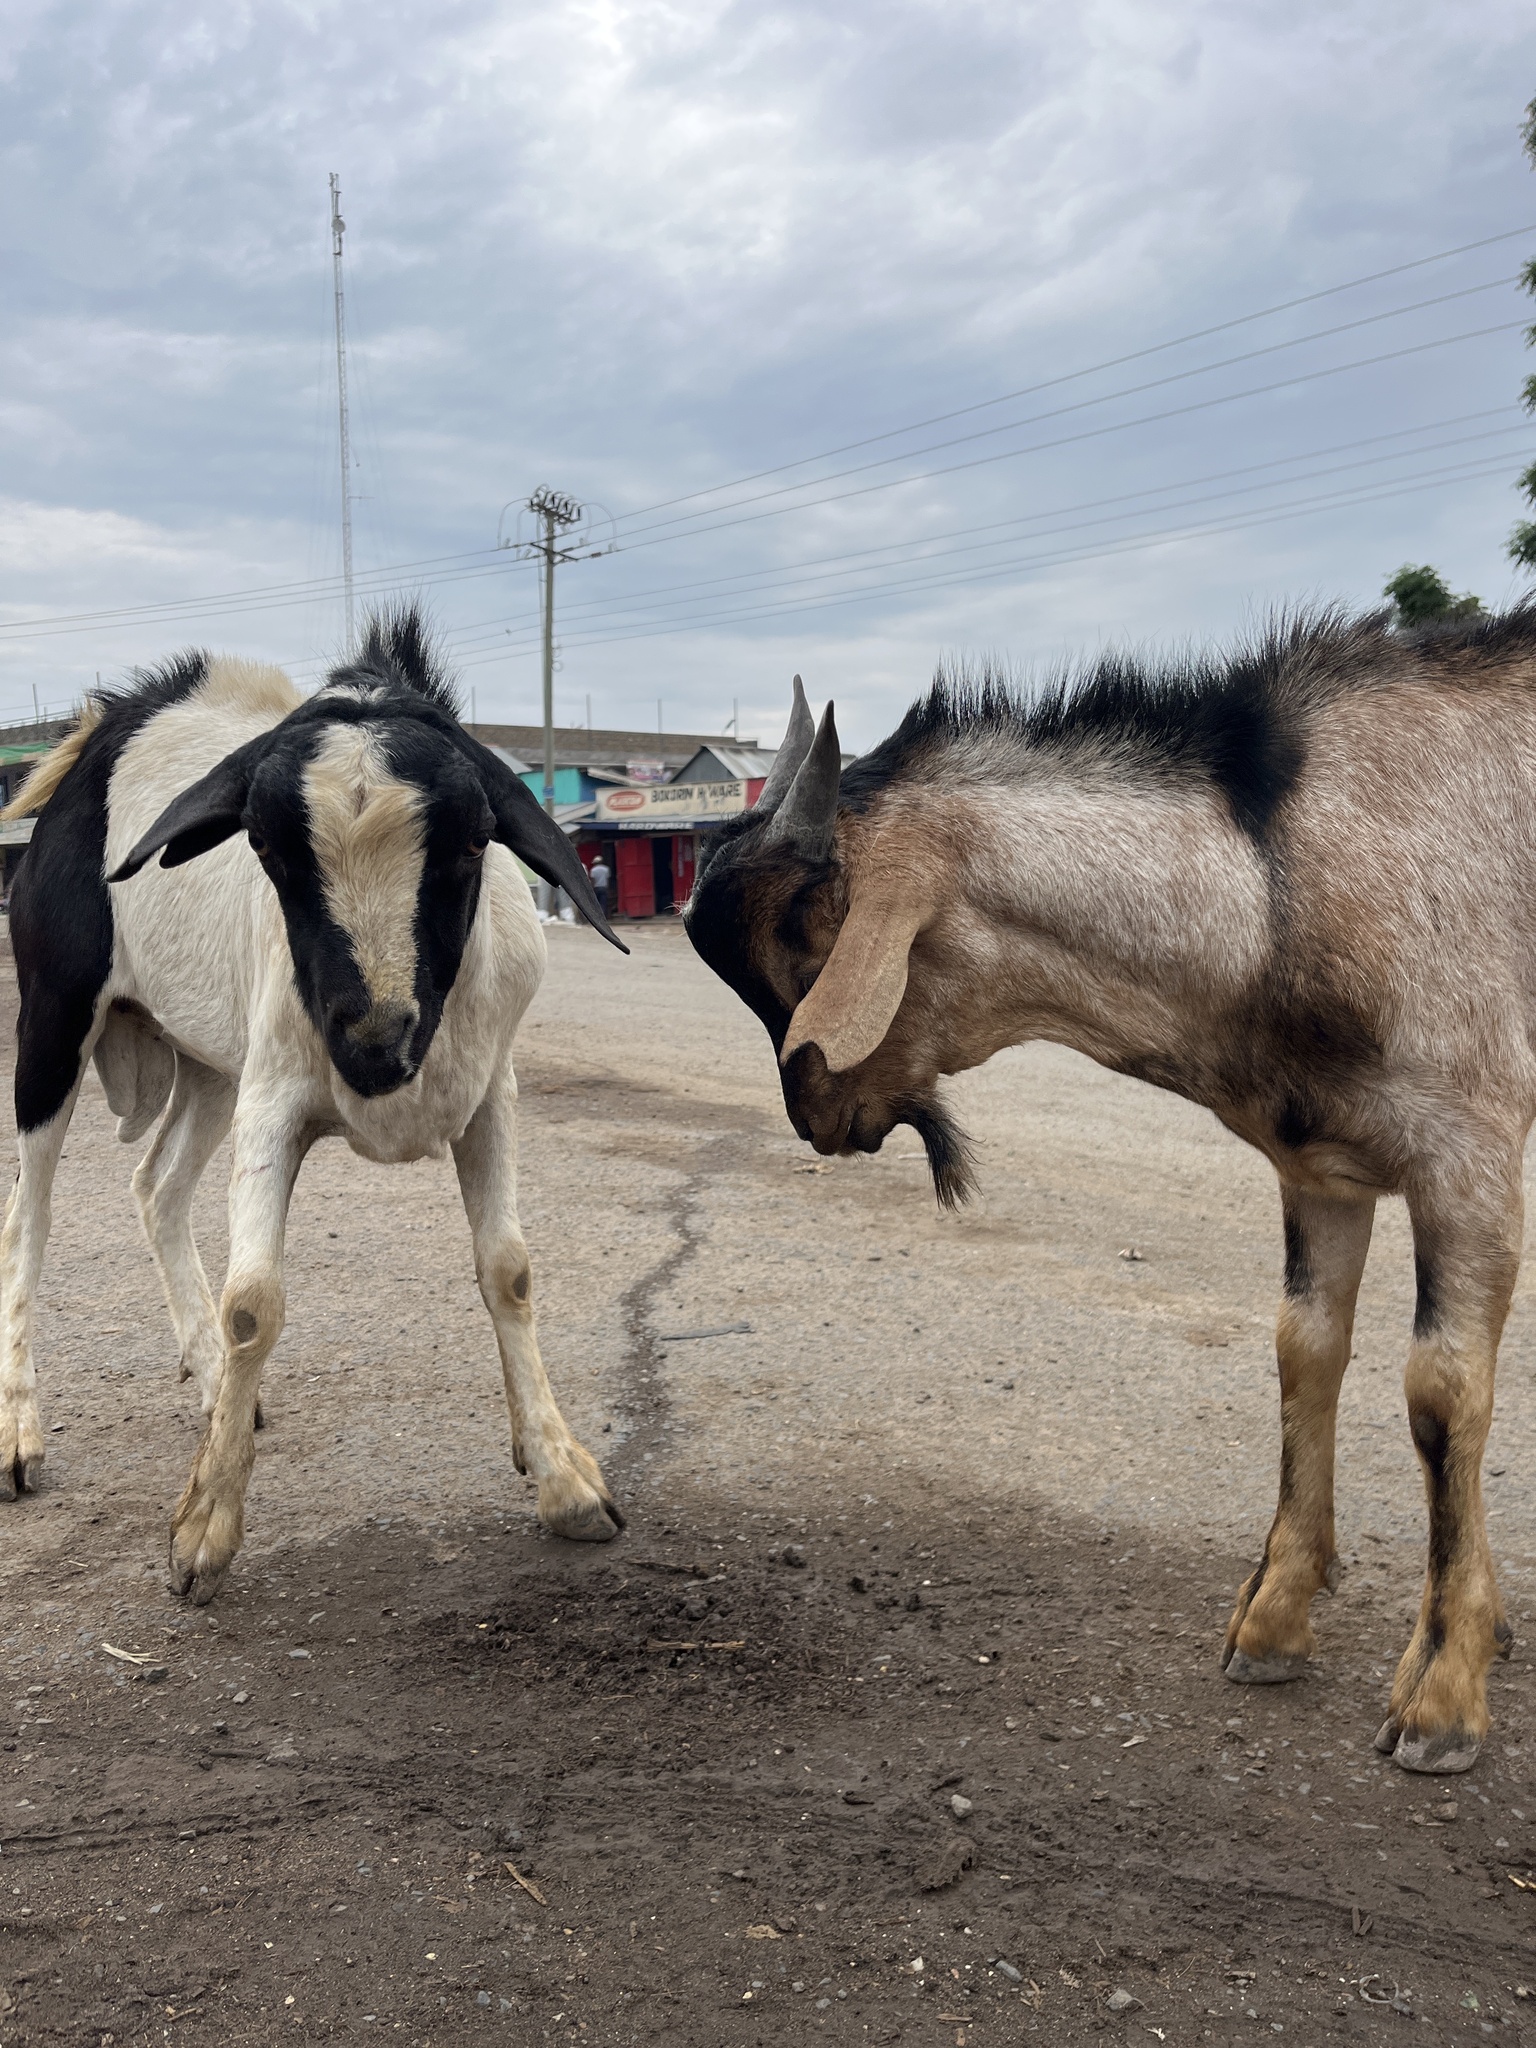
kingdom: Animalia
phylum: Chordata
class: Mammalia
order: Artiodactyla
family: Bovidae
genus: Capra
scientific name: Capra hircus
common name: Domestic goat
